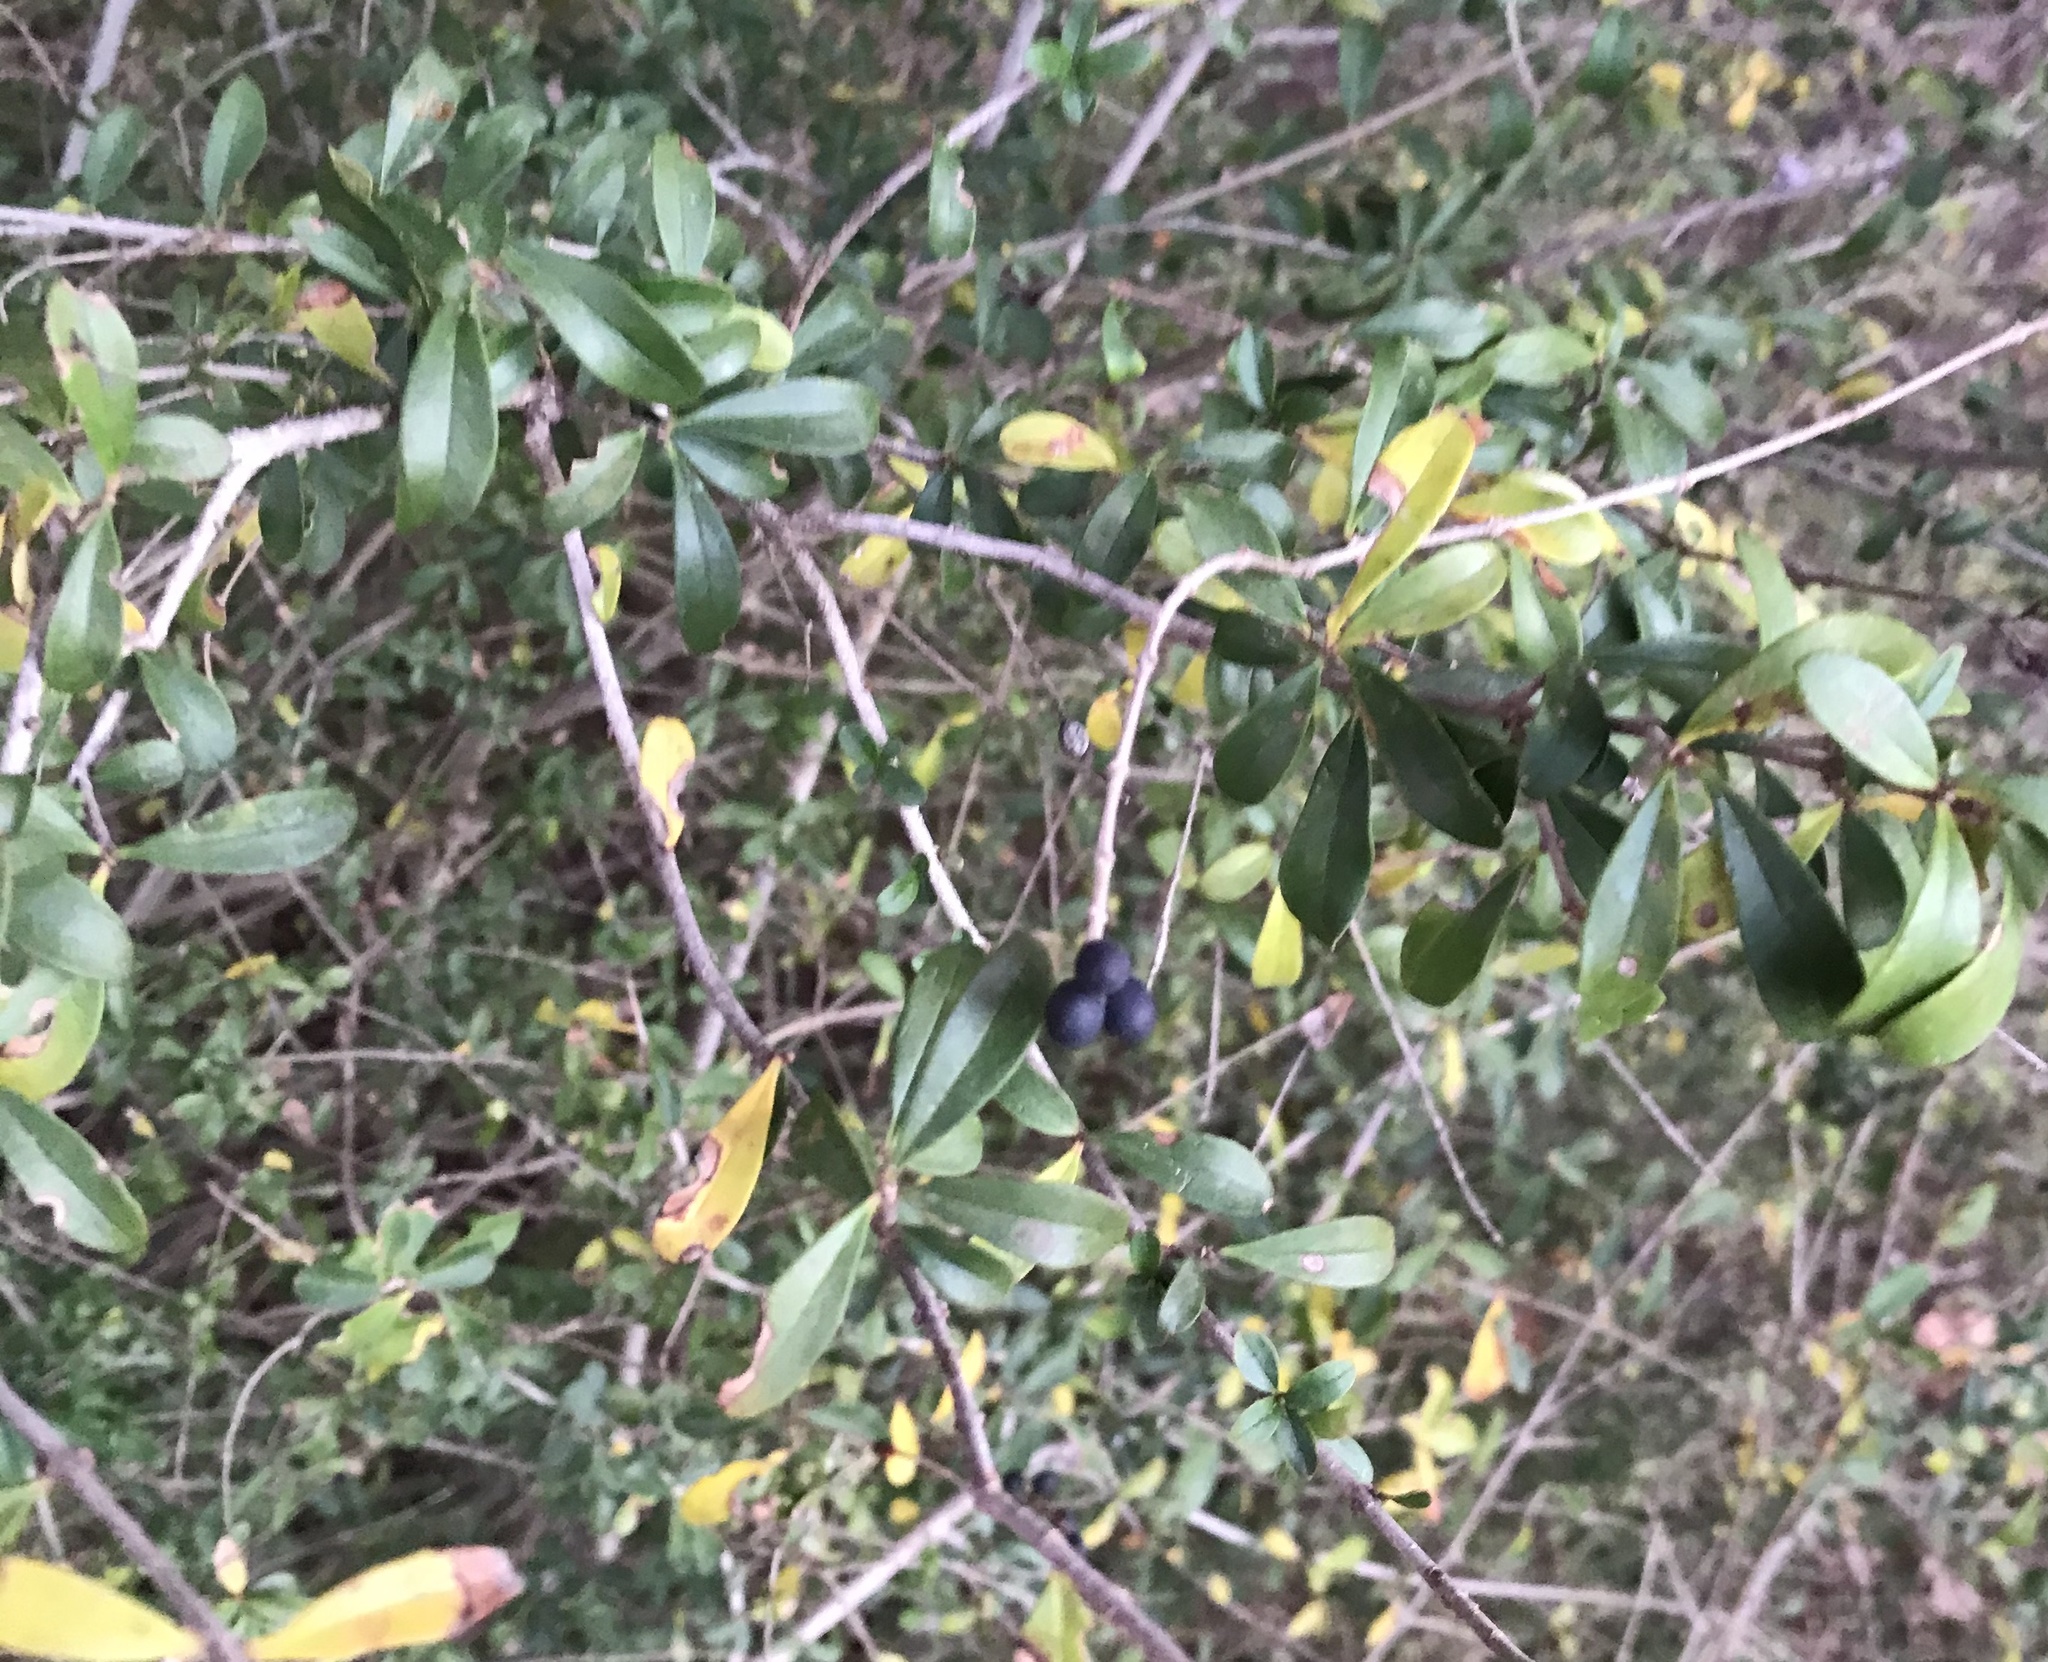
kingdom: Plantae
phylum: Tracheophyta
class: Magnoliopsida
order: Lamiales
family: Oleaceae
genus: Ligustrum
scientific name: Ligustrum quihoui
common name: Waxyleaf privet
